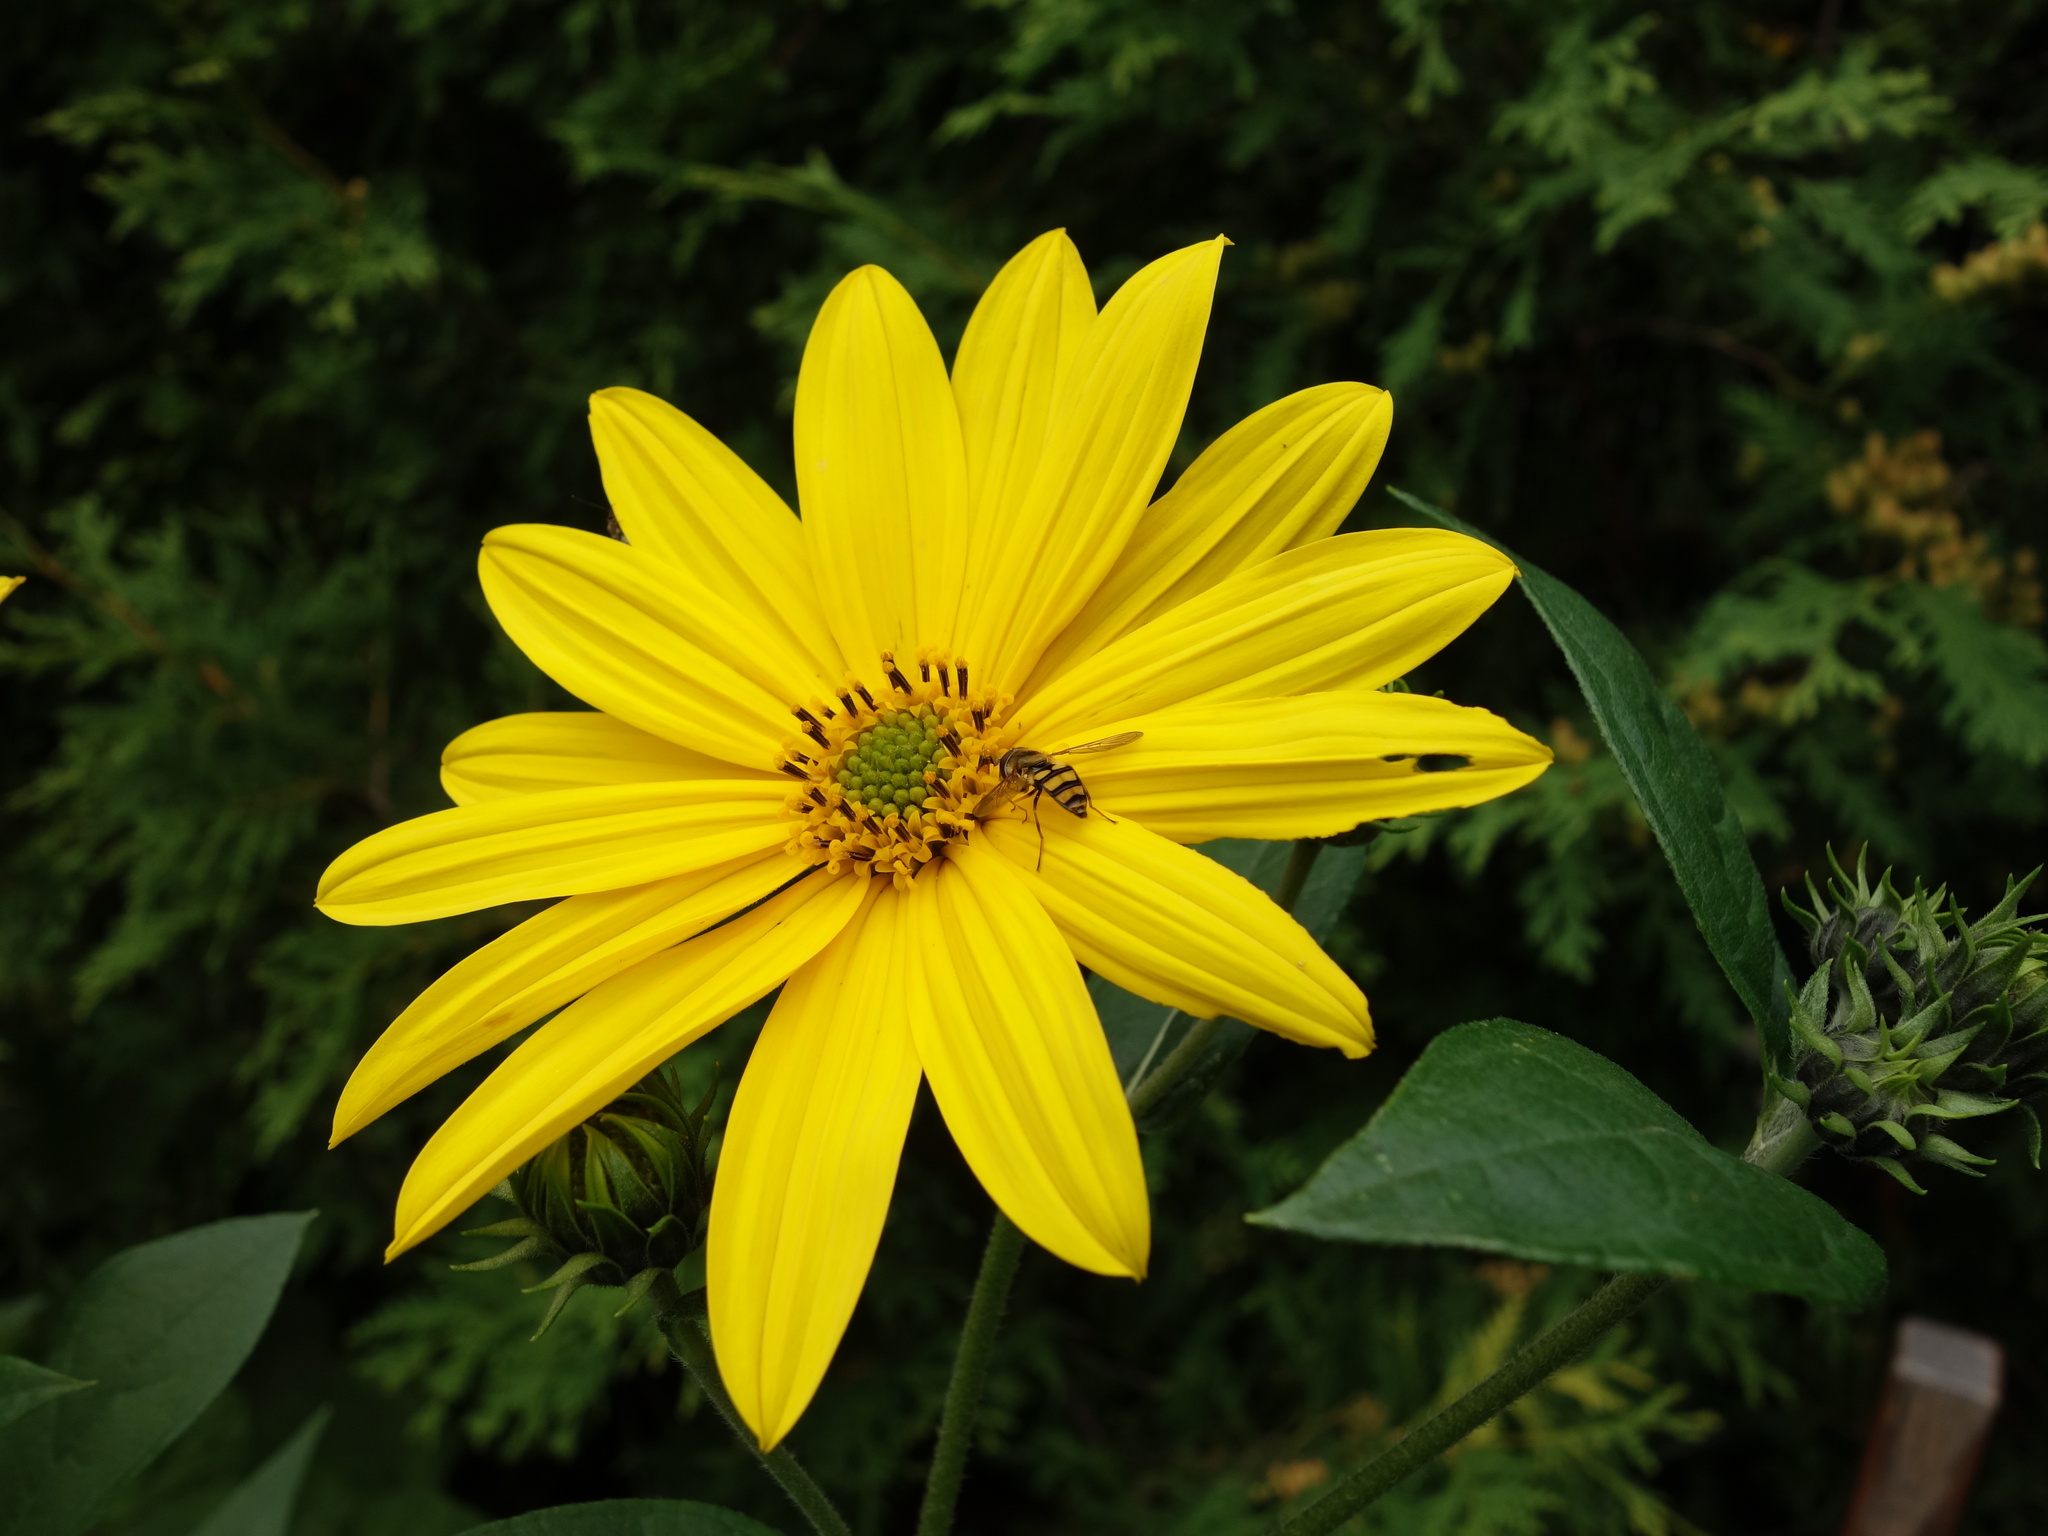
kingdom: Animalia
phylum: Arthropoda
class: Insecta
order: Diptera
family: Syrphidae
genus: Eupeodes
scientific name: Eupeodes
